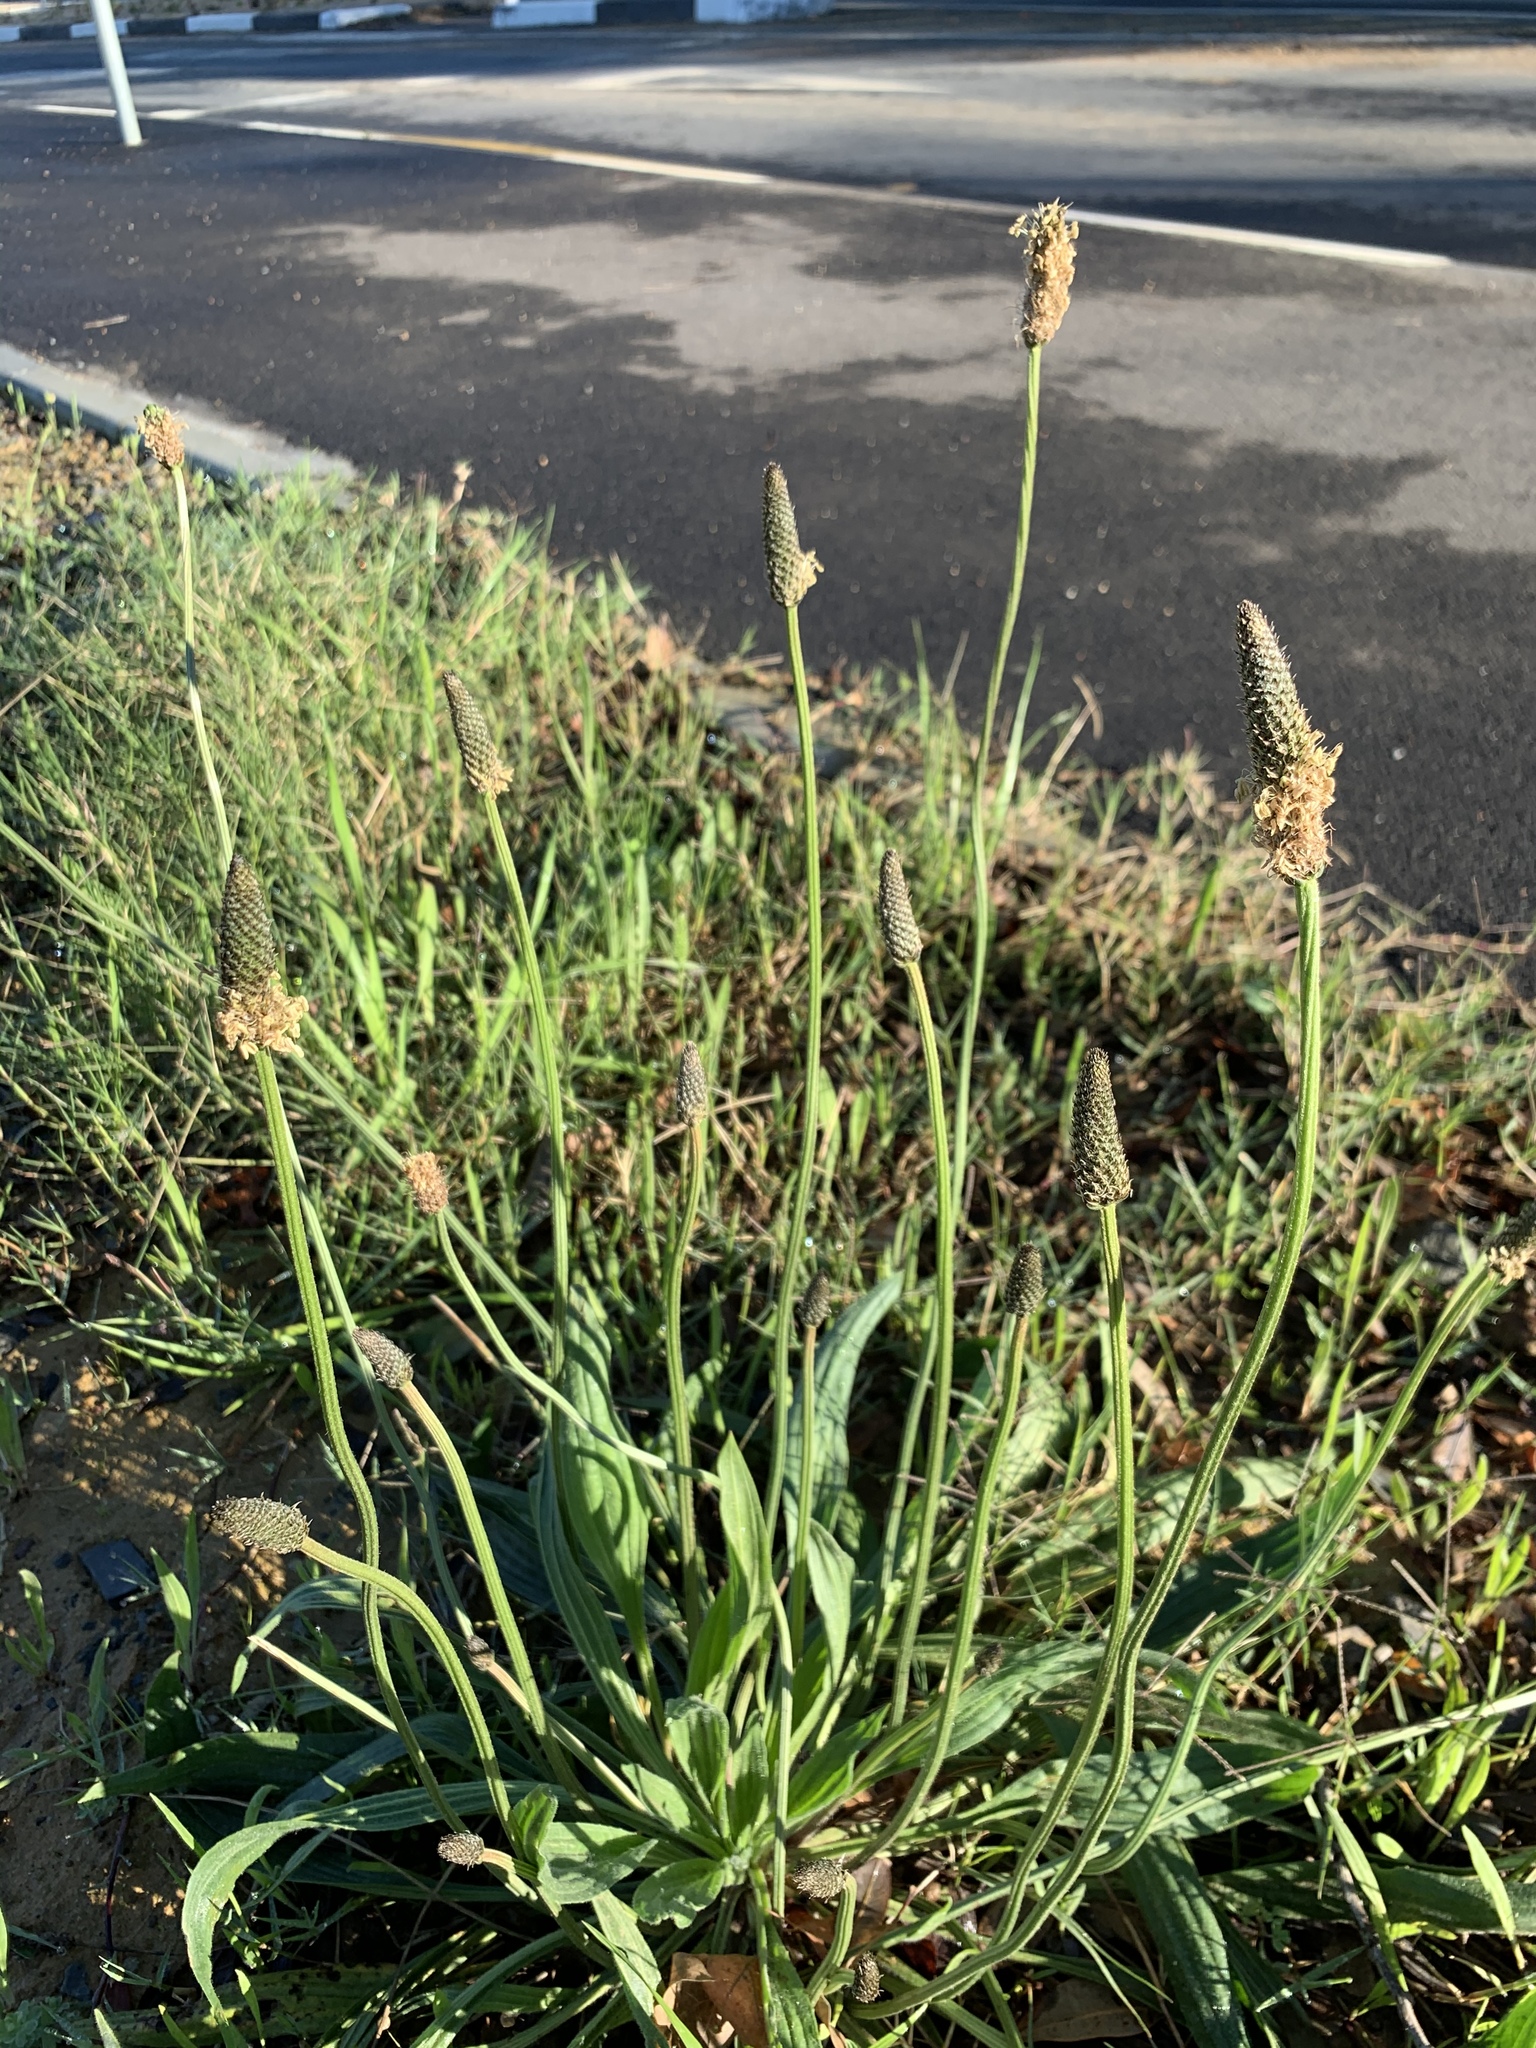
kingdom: Plantae
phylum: Tracheophyta
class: Magnoliopsida
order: Lamiales
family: Plantaginaceae
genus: Plantago
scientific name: Plantago lanceolata
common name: Ribwort plantain
